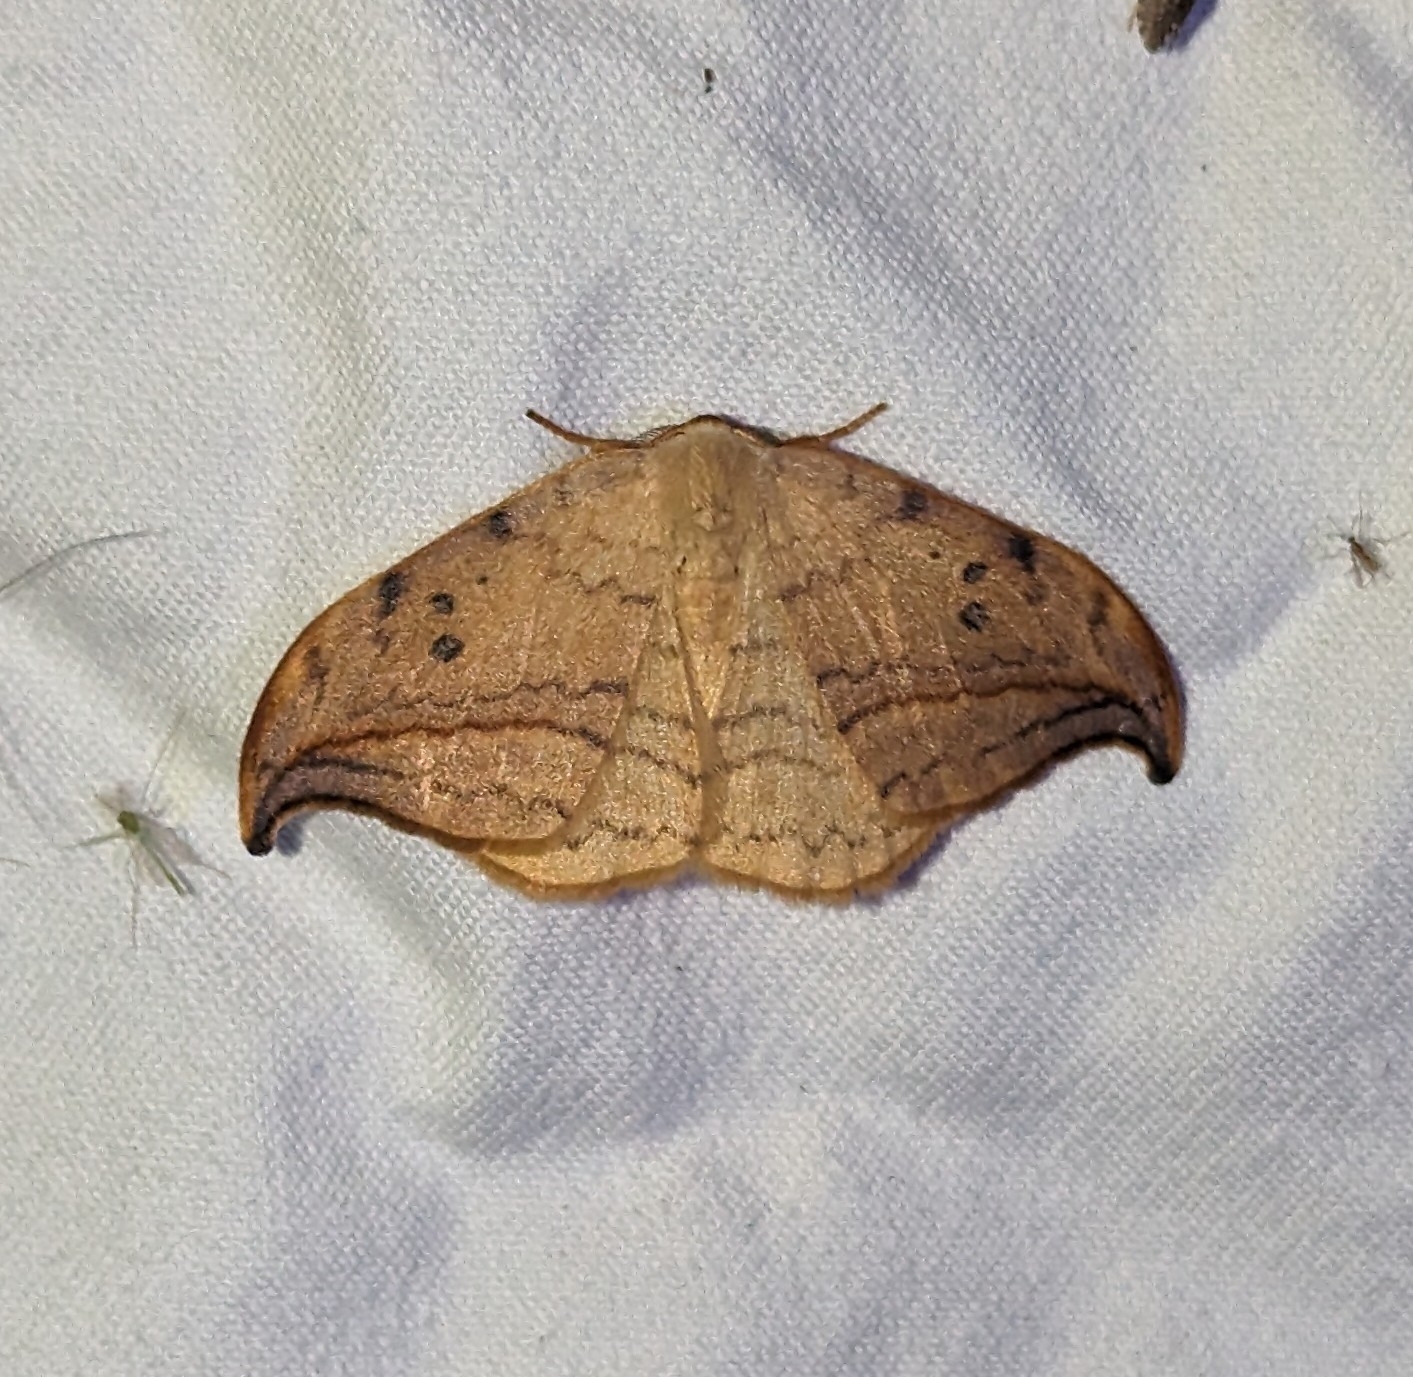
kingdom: Animalia
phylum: Arthropoda
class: Insecta
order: Lepidoptera
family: Drepanidae
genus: Drepana
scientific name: Drepana arcuata
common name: Arched hooktip moth
